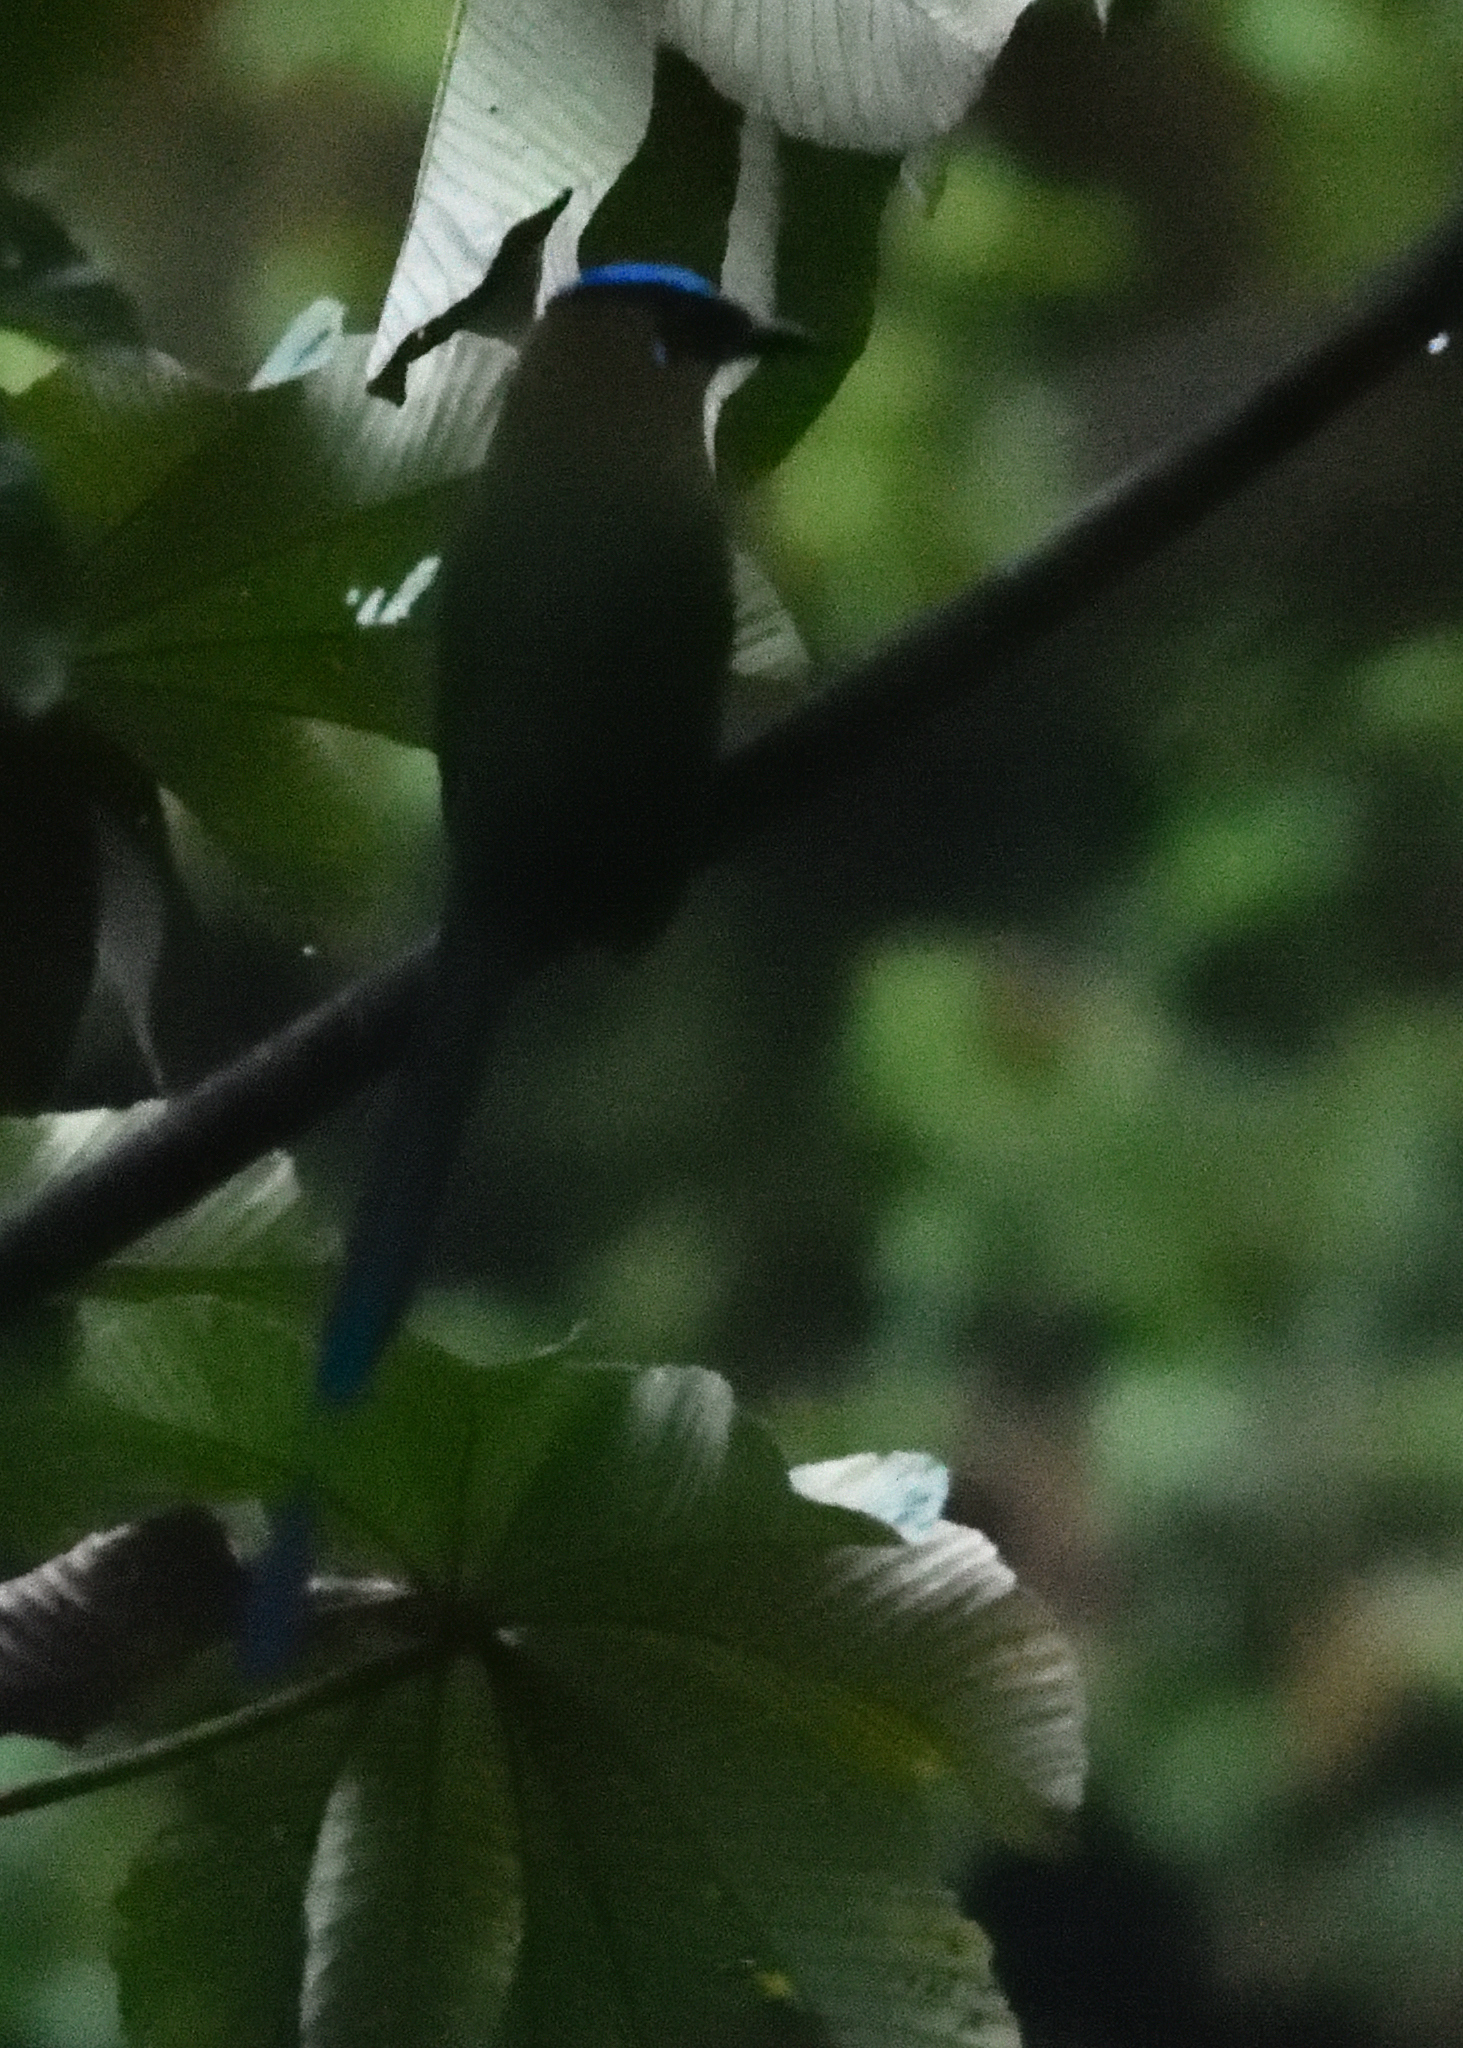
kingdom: Animalia
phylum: Chordata
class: Aves
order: Coraciiformes
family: Momotidae
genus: Momotus
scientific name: Momotus aequatorialis
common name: Andean motmot
